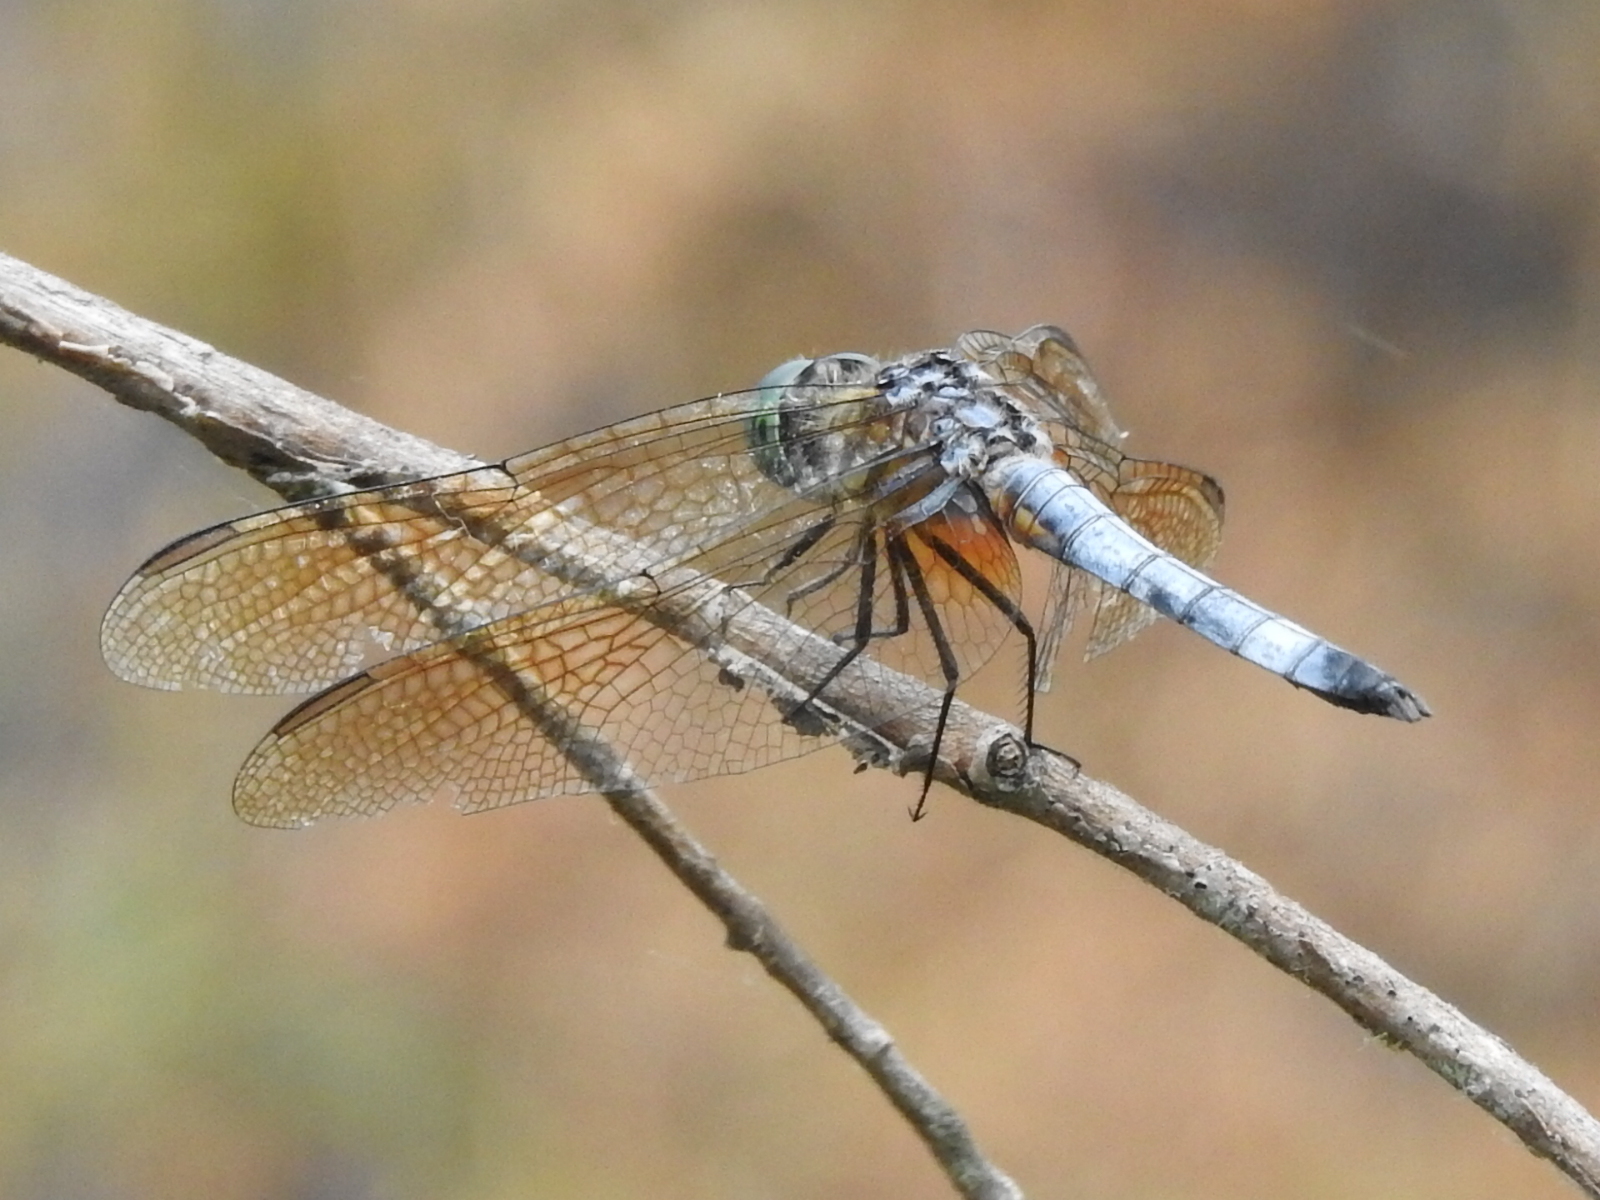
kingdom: Animalia
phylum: Arthropoda
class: Insecta
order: Odonata
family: Libellulidae
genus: Pachydiplax
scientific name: Pachydiplax longipennis
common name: Blue dasher
